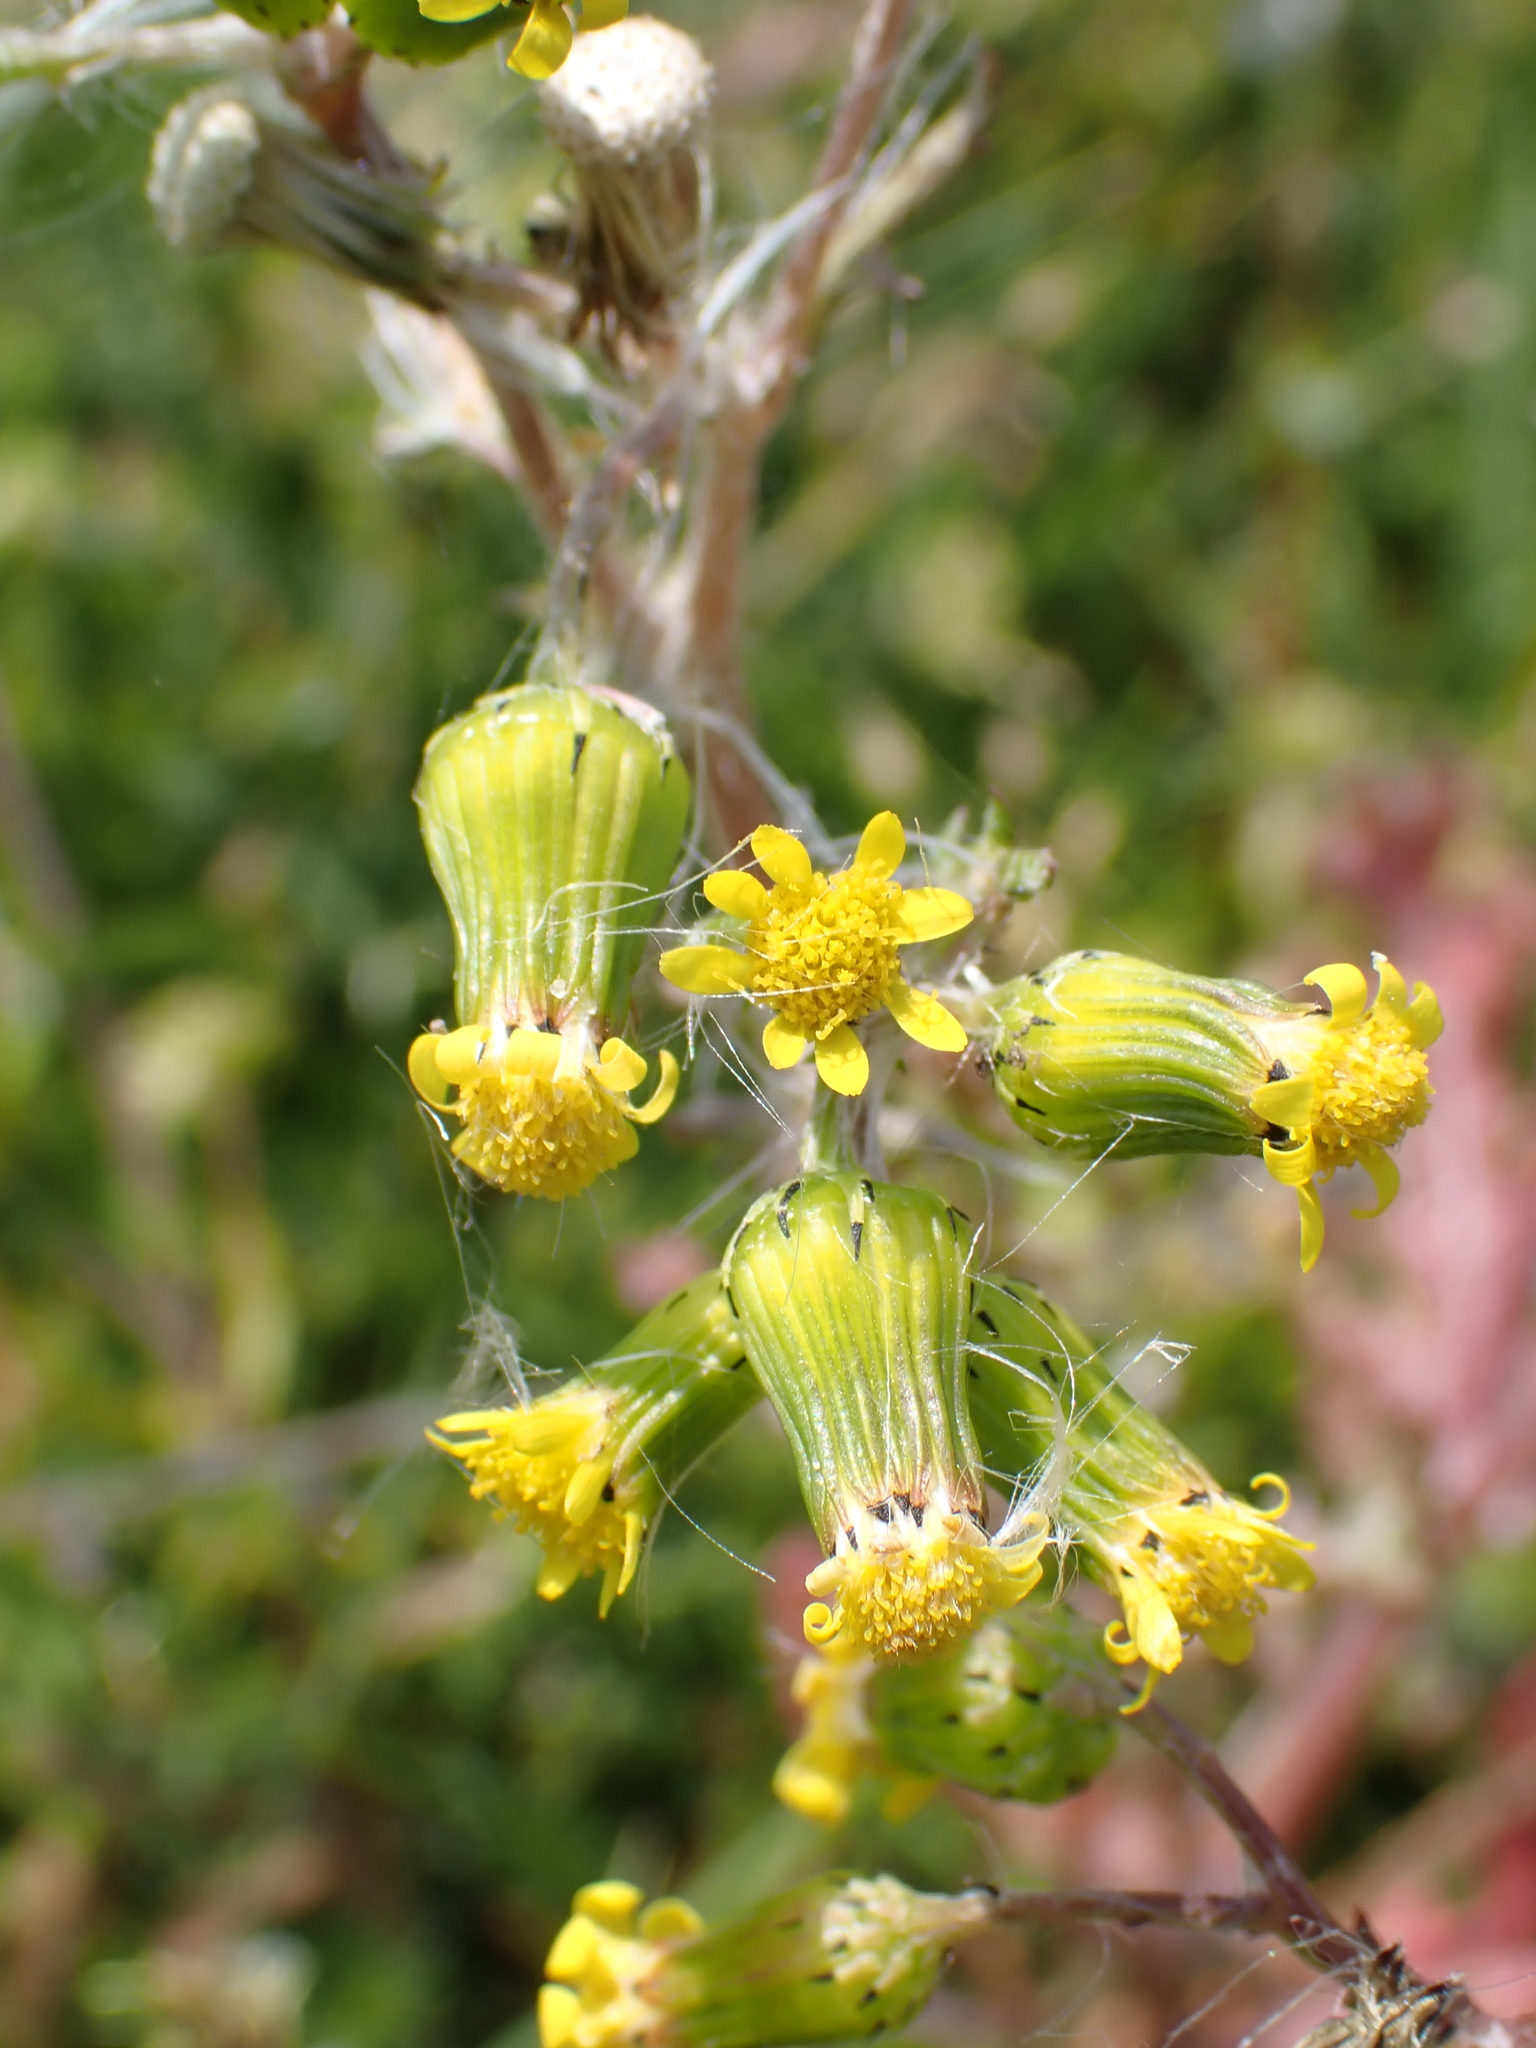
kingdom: Plantae
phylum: Tracheophyta
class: Magnoliopsida
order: Asterales
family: Asteraceae
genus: Senecio
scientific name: Senecio vulgaris
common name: Old-man-in-the-spring
